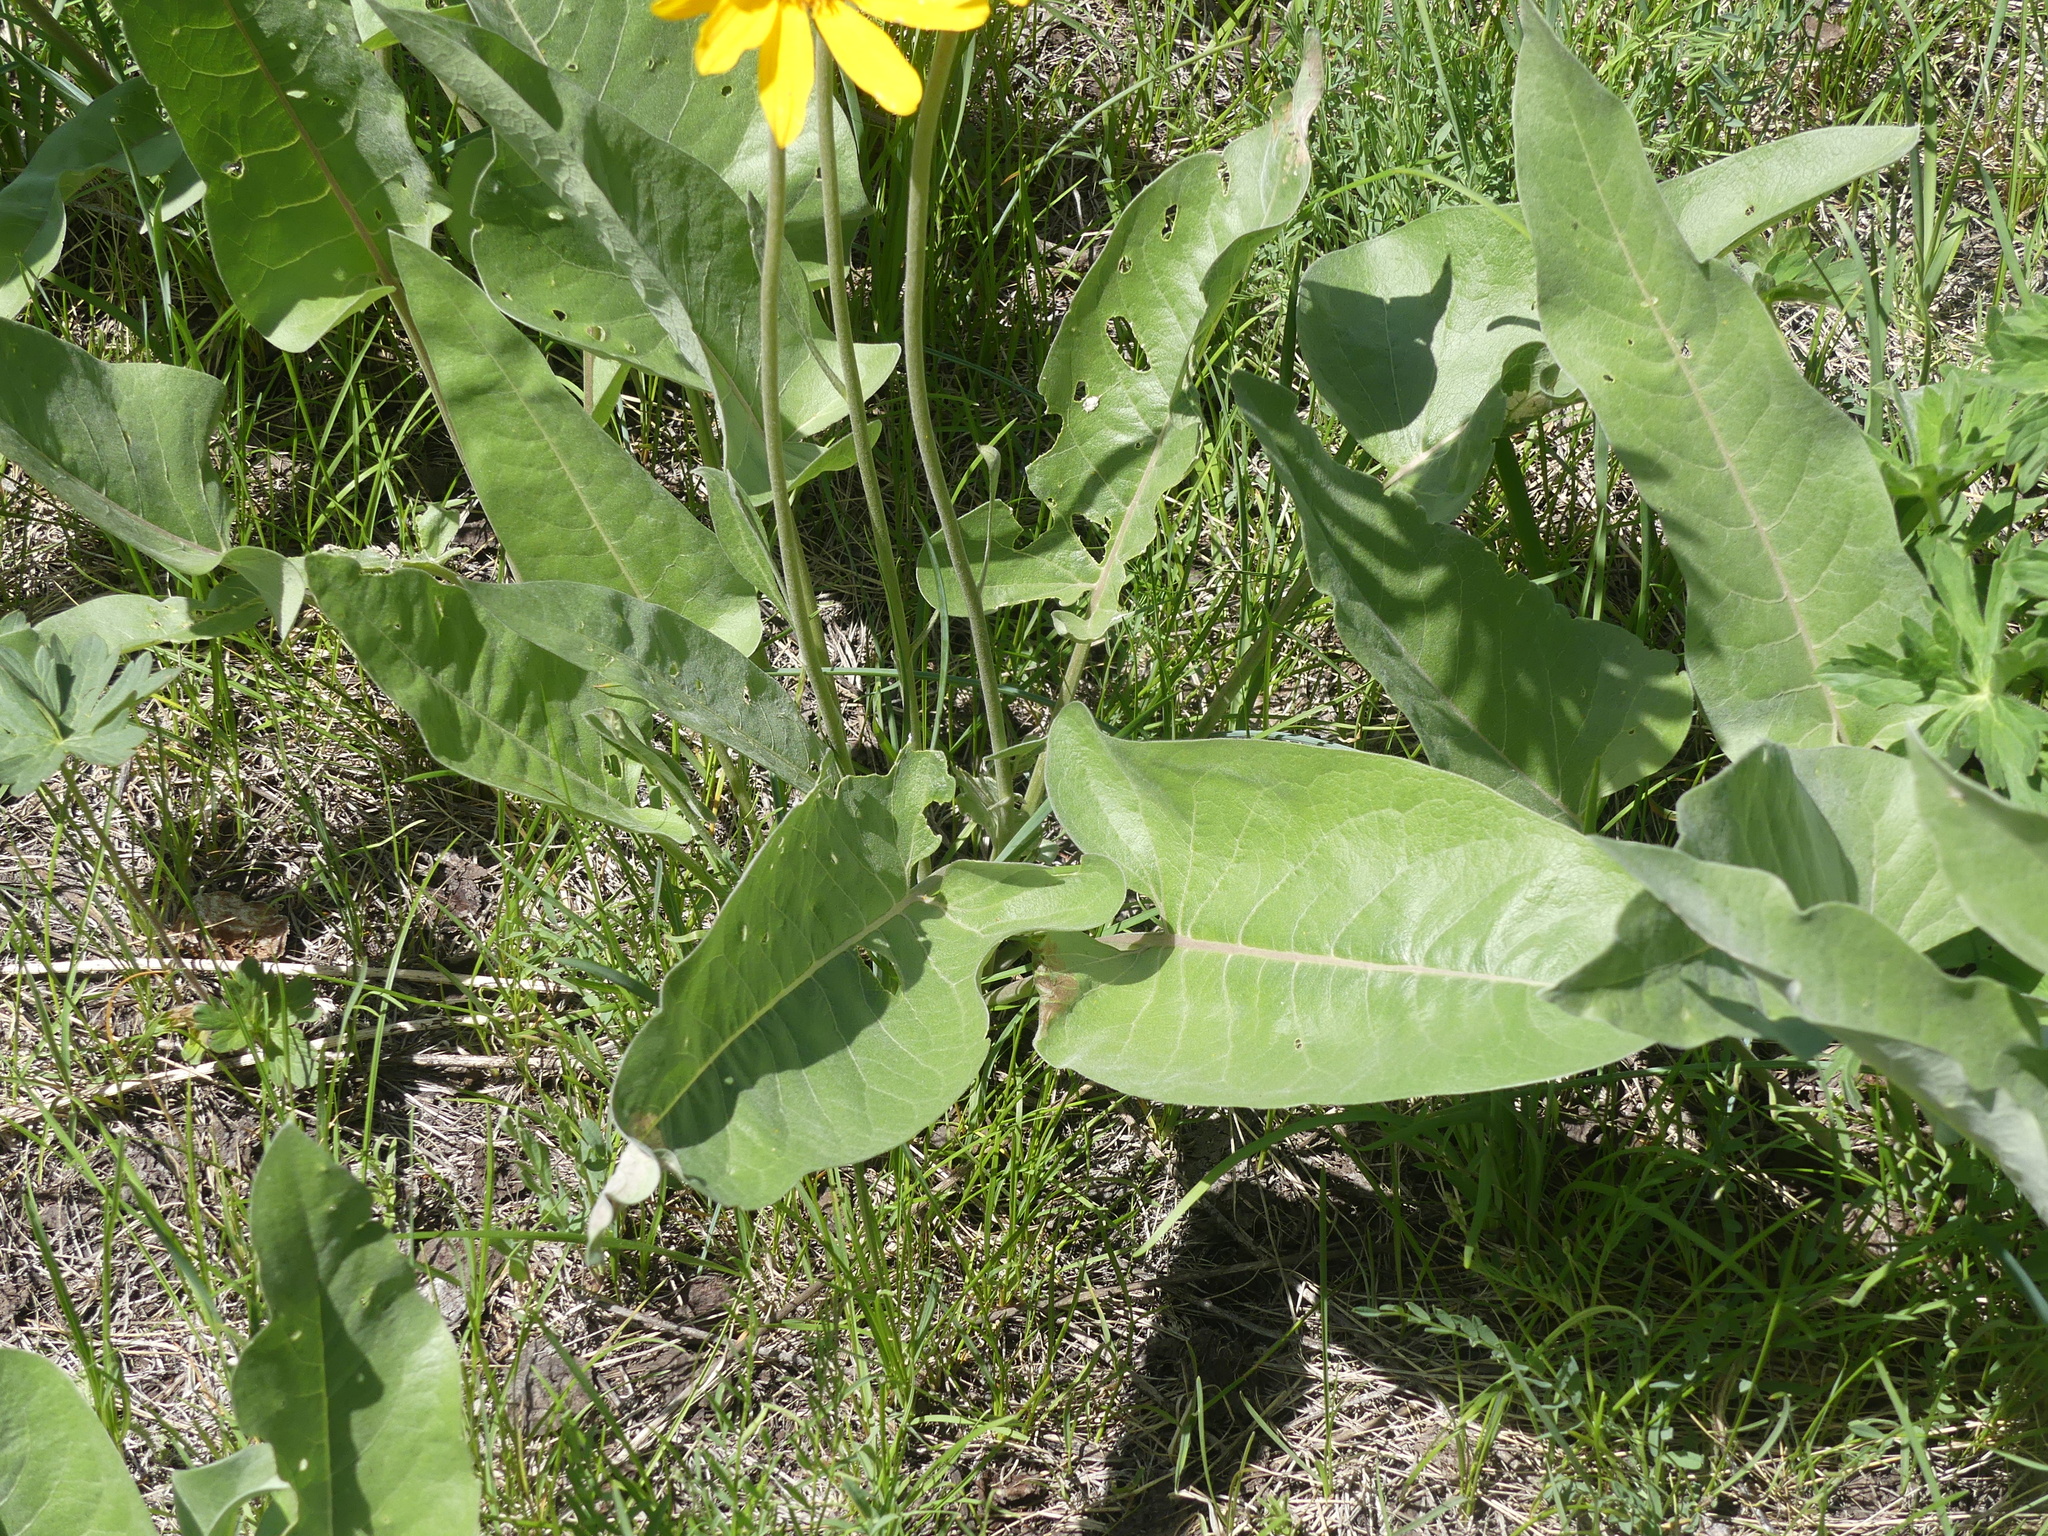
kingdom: Plantae
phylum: Tracheophyta
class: Magnoliopsida
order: Asterales
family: Asteraceae
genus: Wyethia
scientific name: Wyethia sagittata
